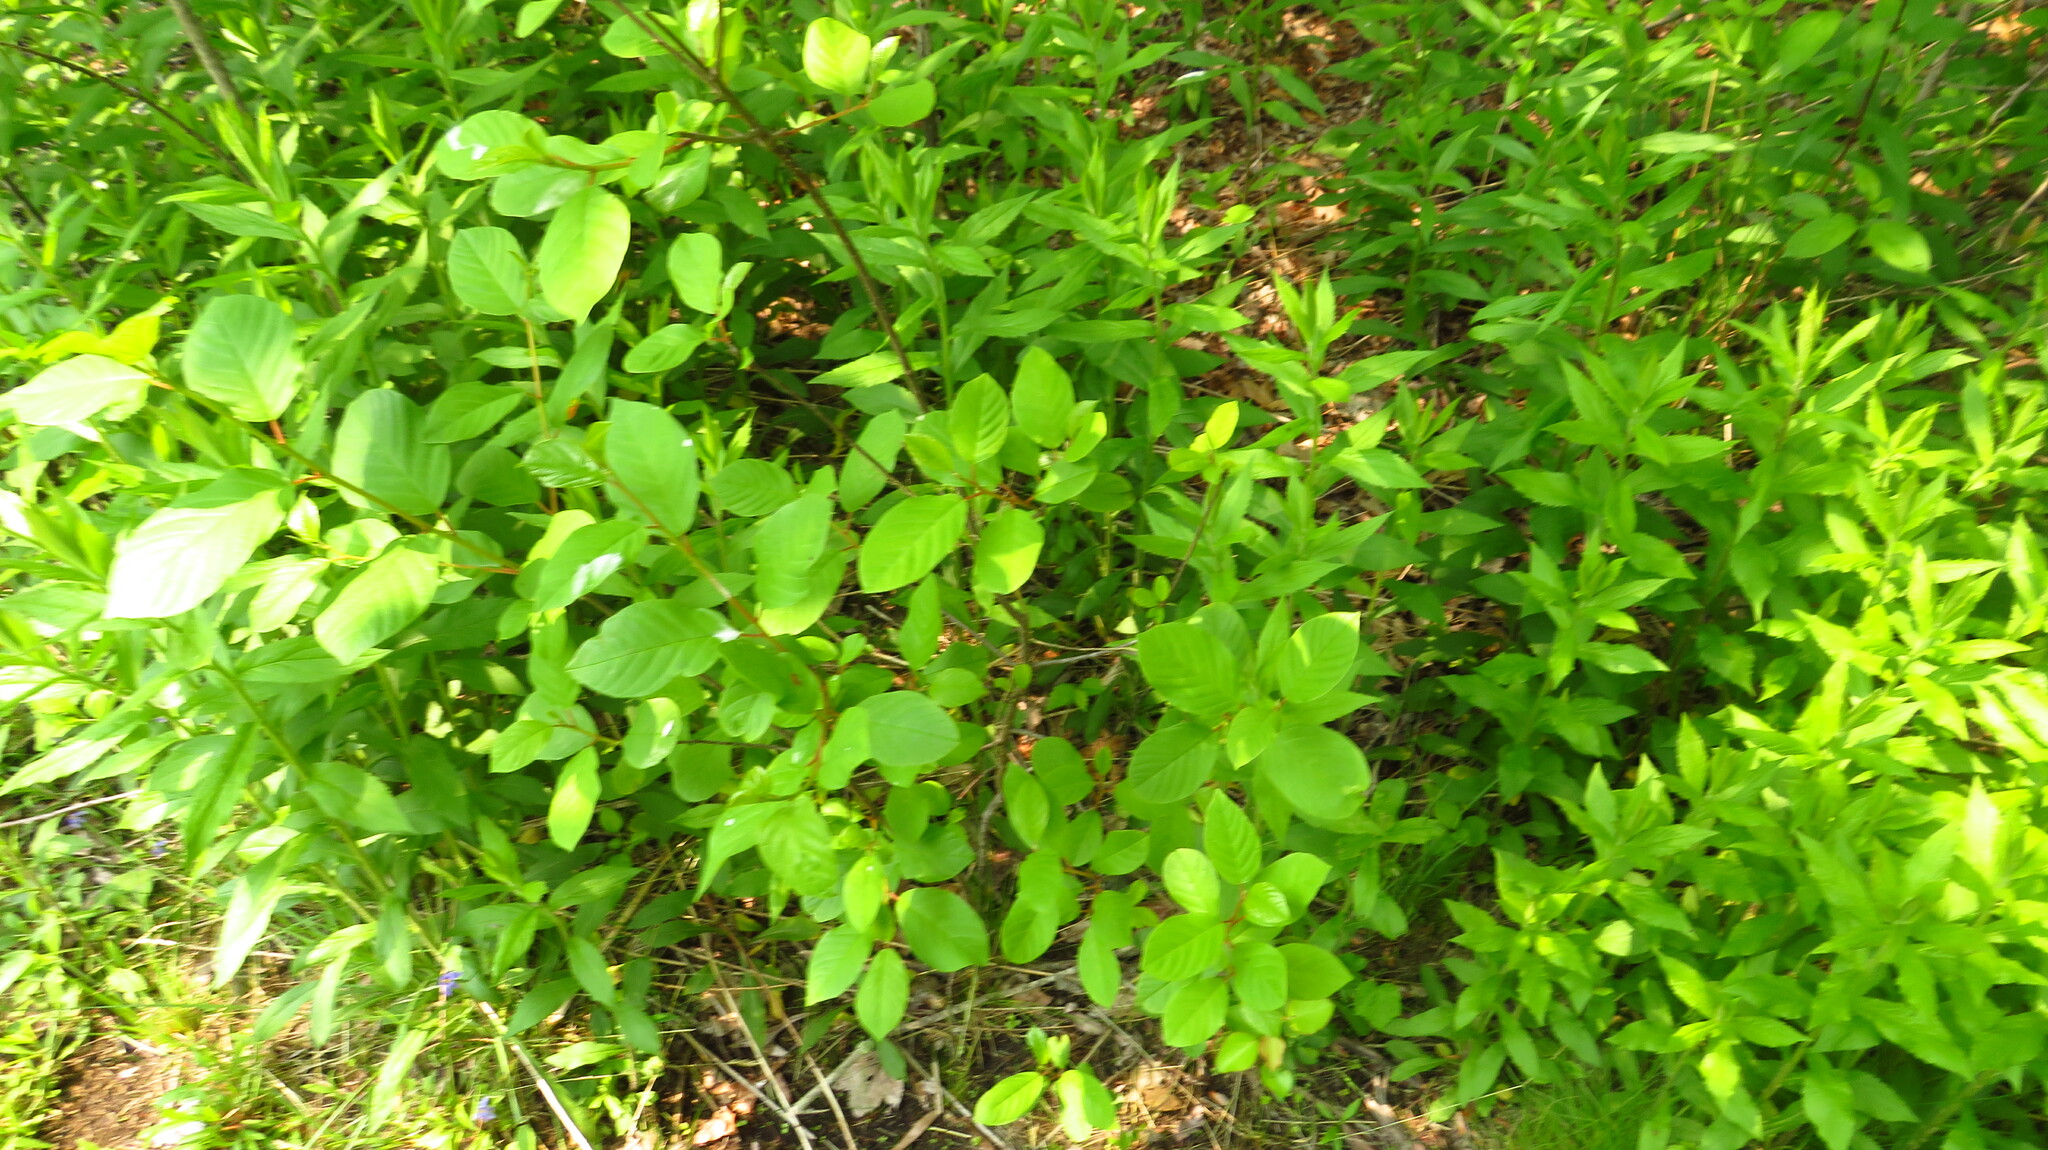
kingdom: Plantae
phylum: Tracheophyta
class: Magnoliopsida
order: Rosales
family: Rhamnaceae
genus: Frangula
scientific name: Frangula alnus
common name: Alder buckthorn
